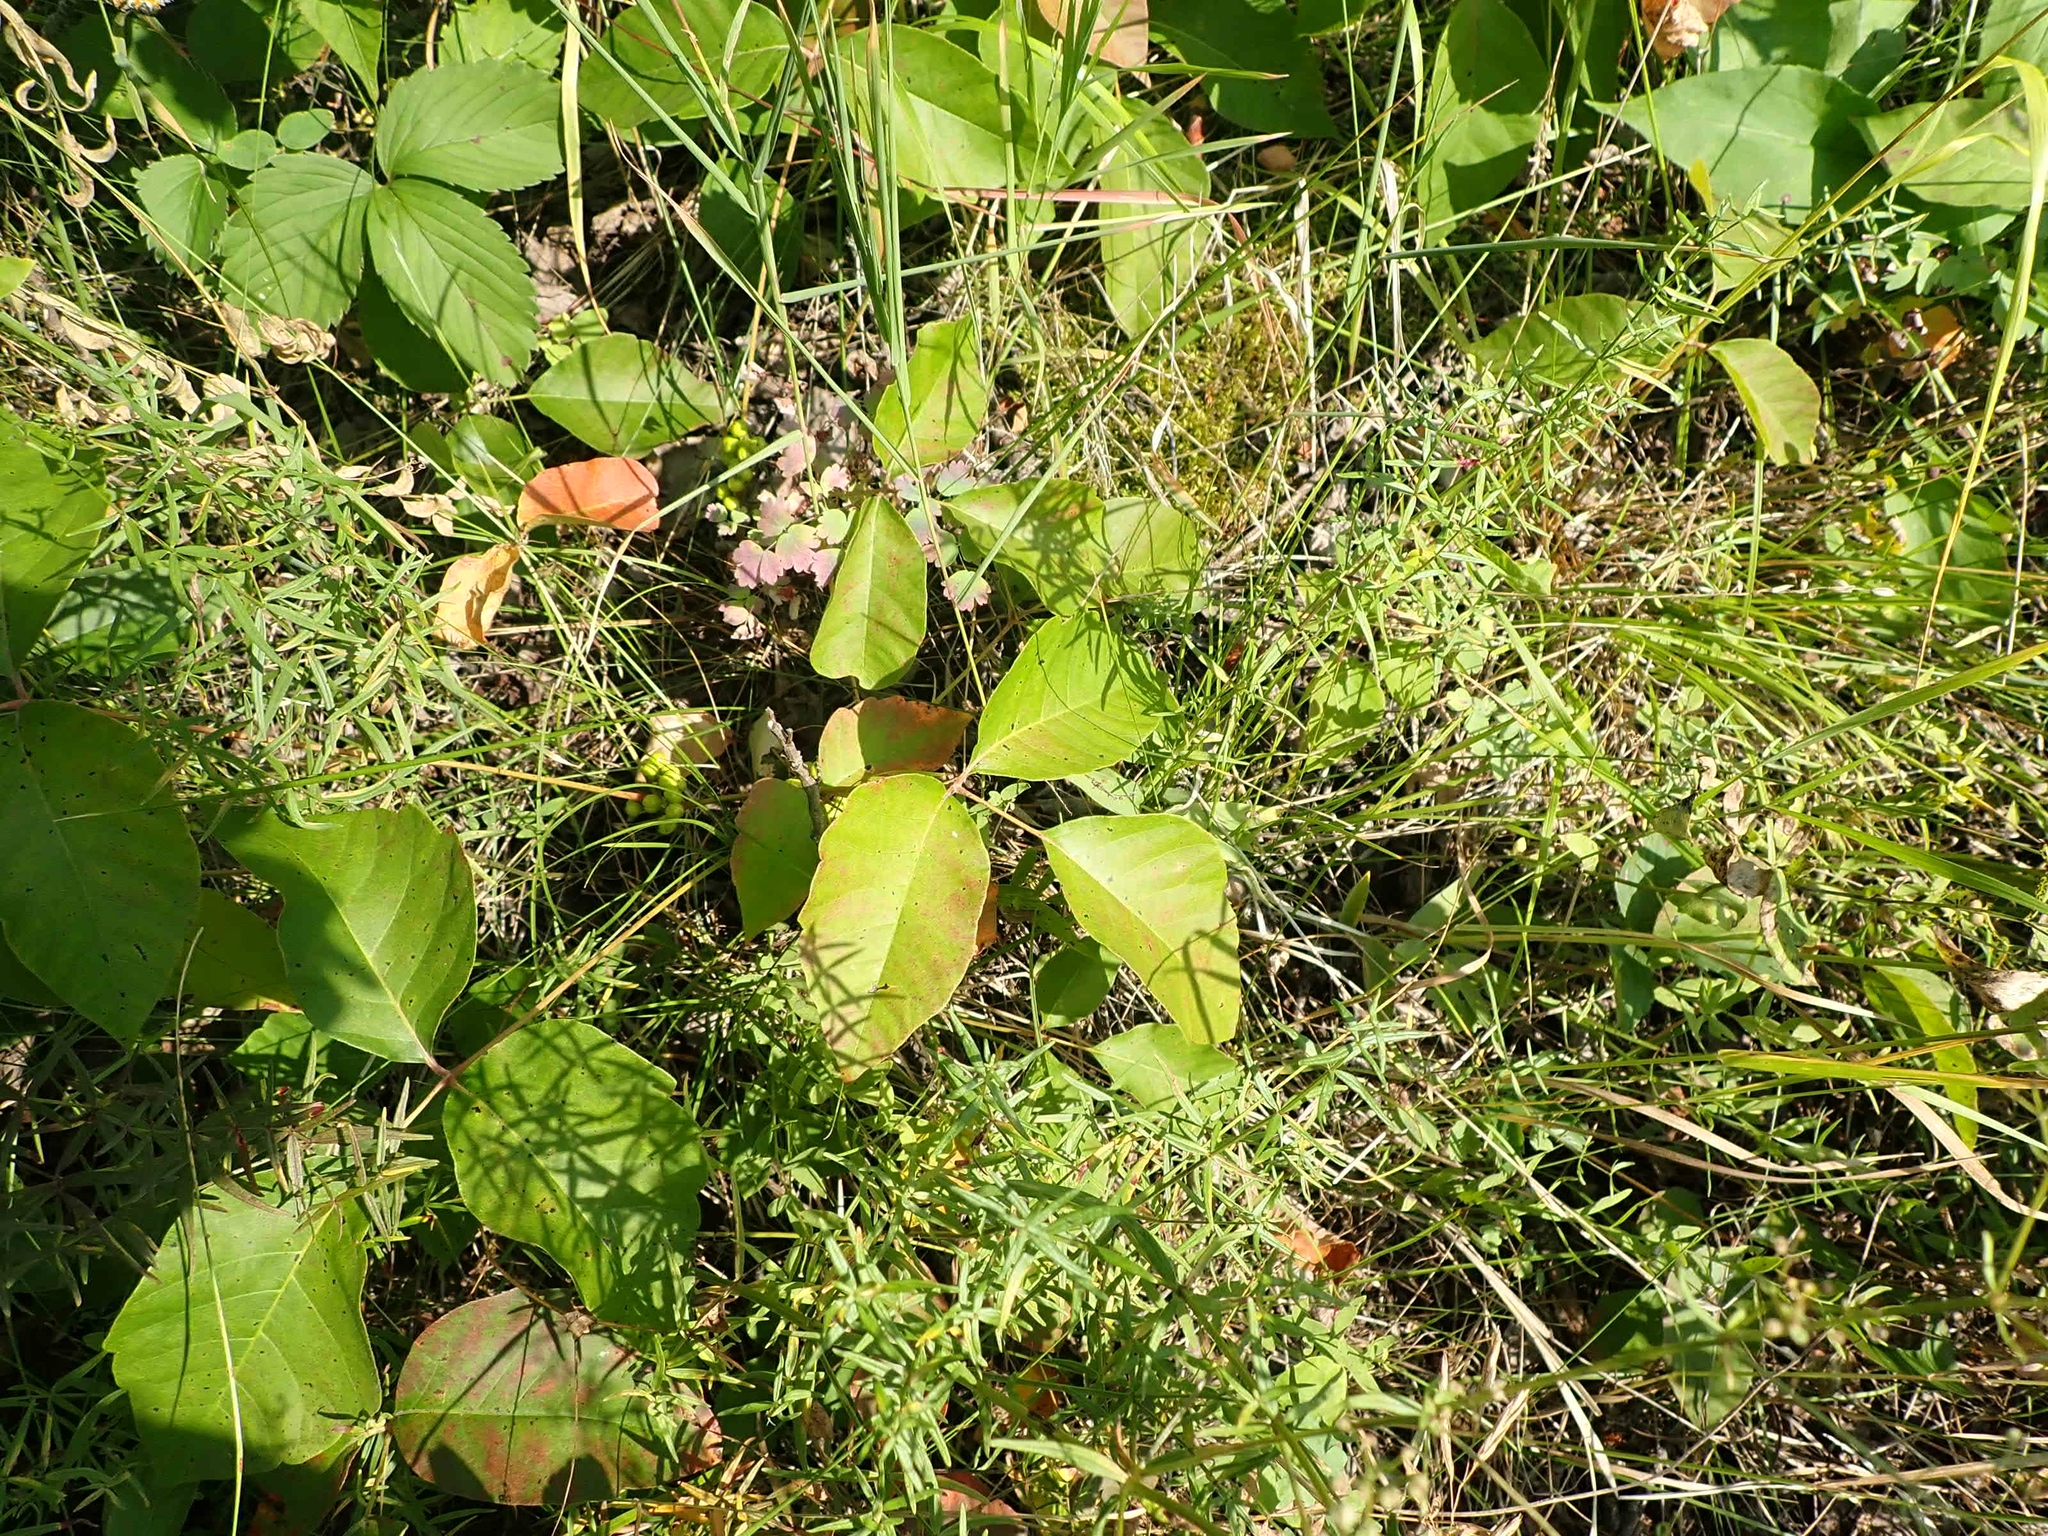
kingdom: Plantae
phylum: Tracheophyta
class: Magnoliopsida
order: Sapindales
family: Anacardiaceae
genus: Toxicodendron
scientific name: Toxicodendron rydbergii
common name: Rydberg's poison-ivy
